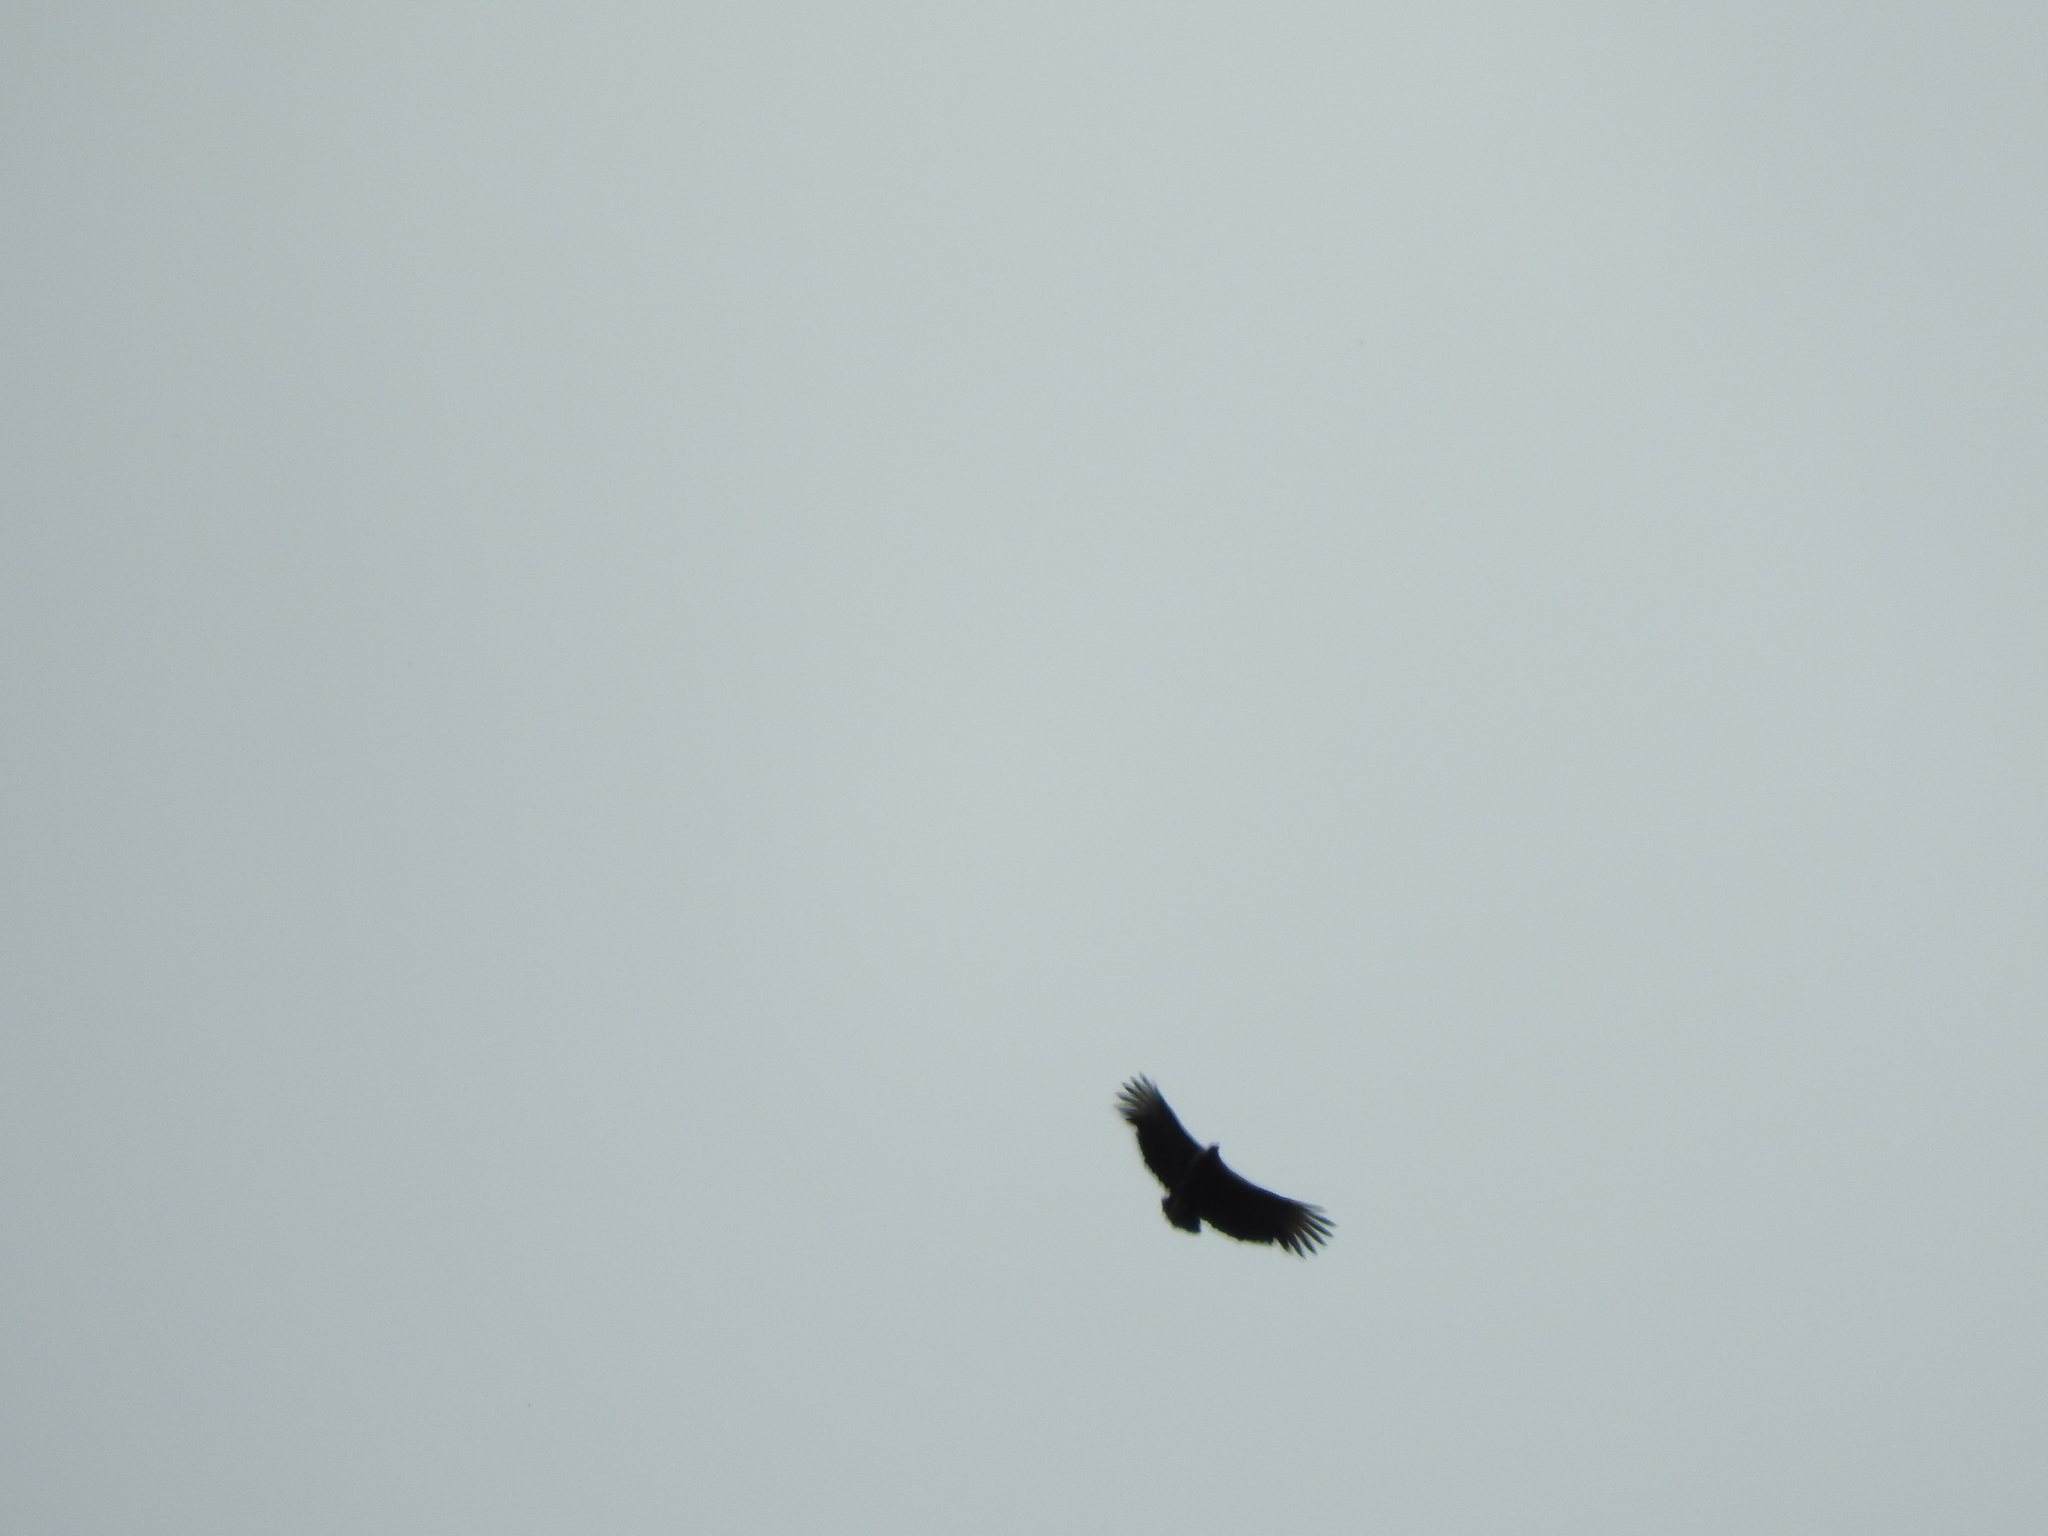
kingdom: Animalia
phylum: Chordata
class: Aves
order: Accipitriformes
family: Cathartidae
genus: Coragyps
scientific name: Coragyps atratus
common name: Black vulture
